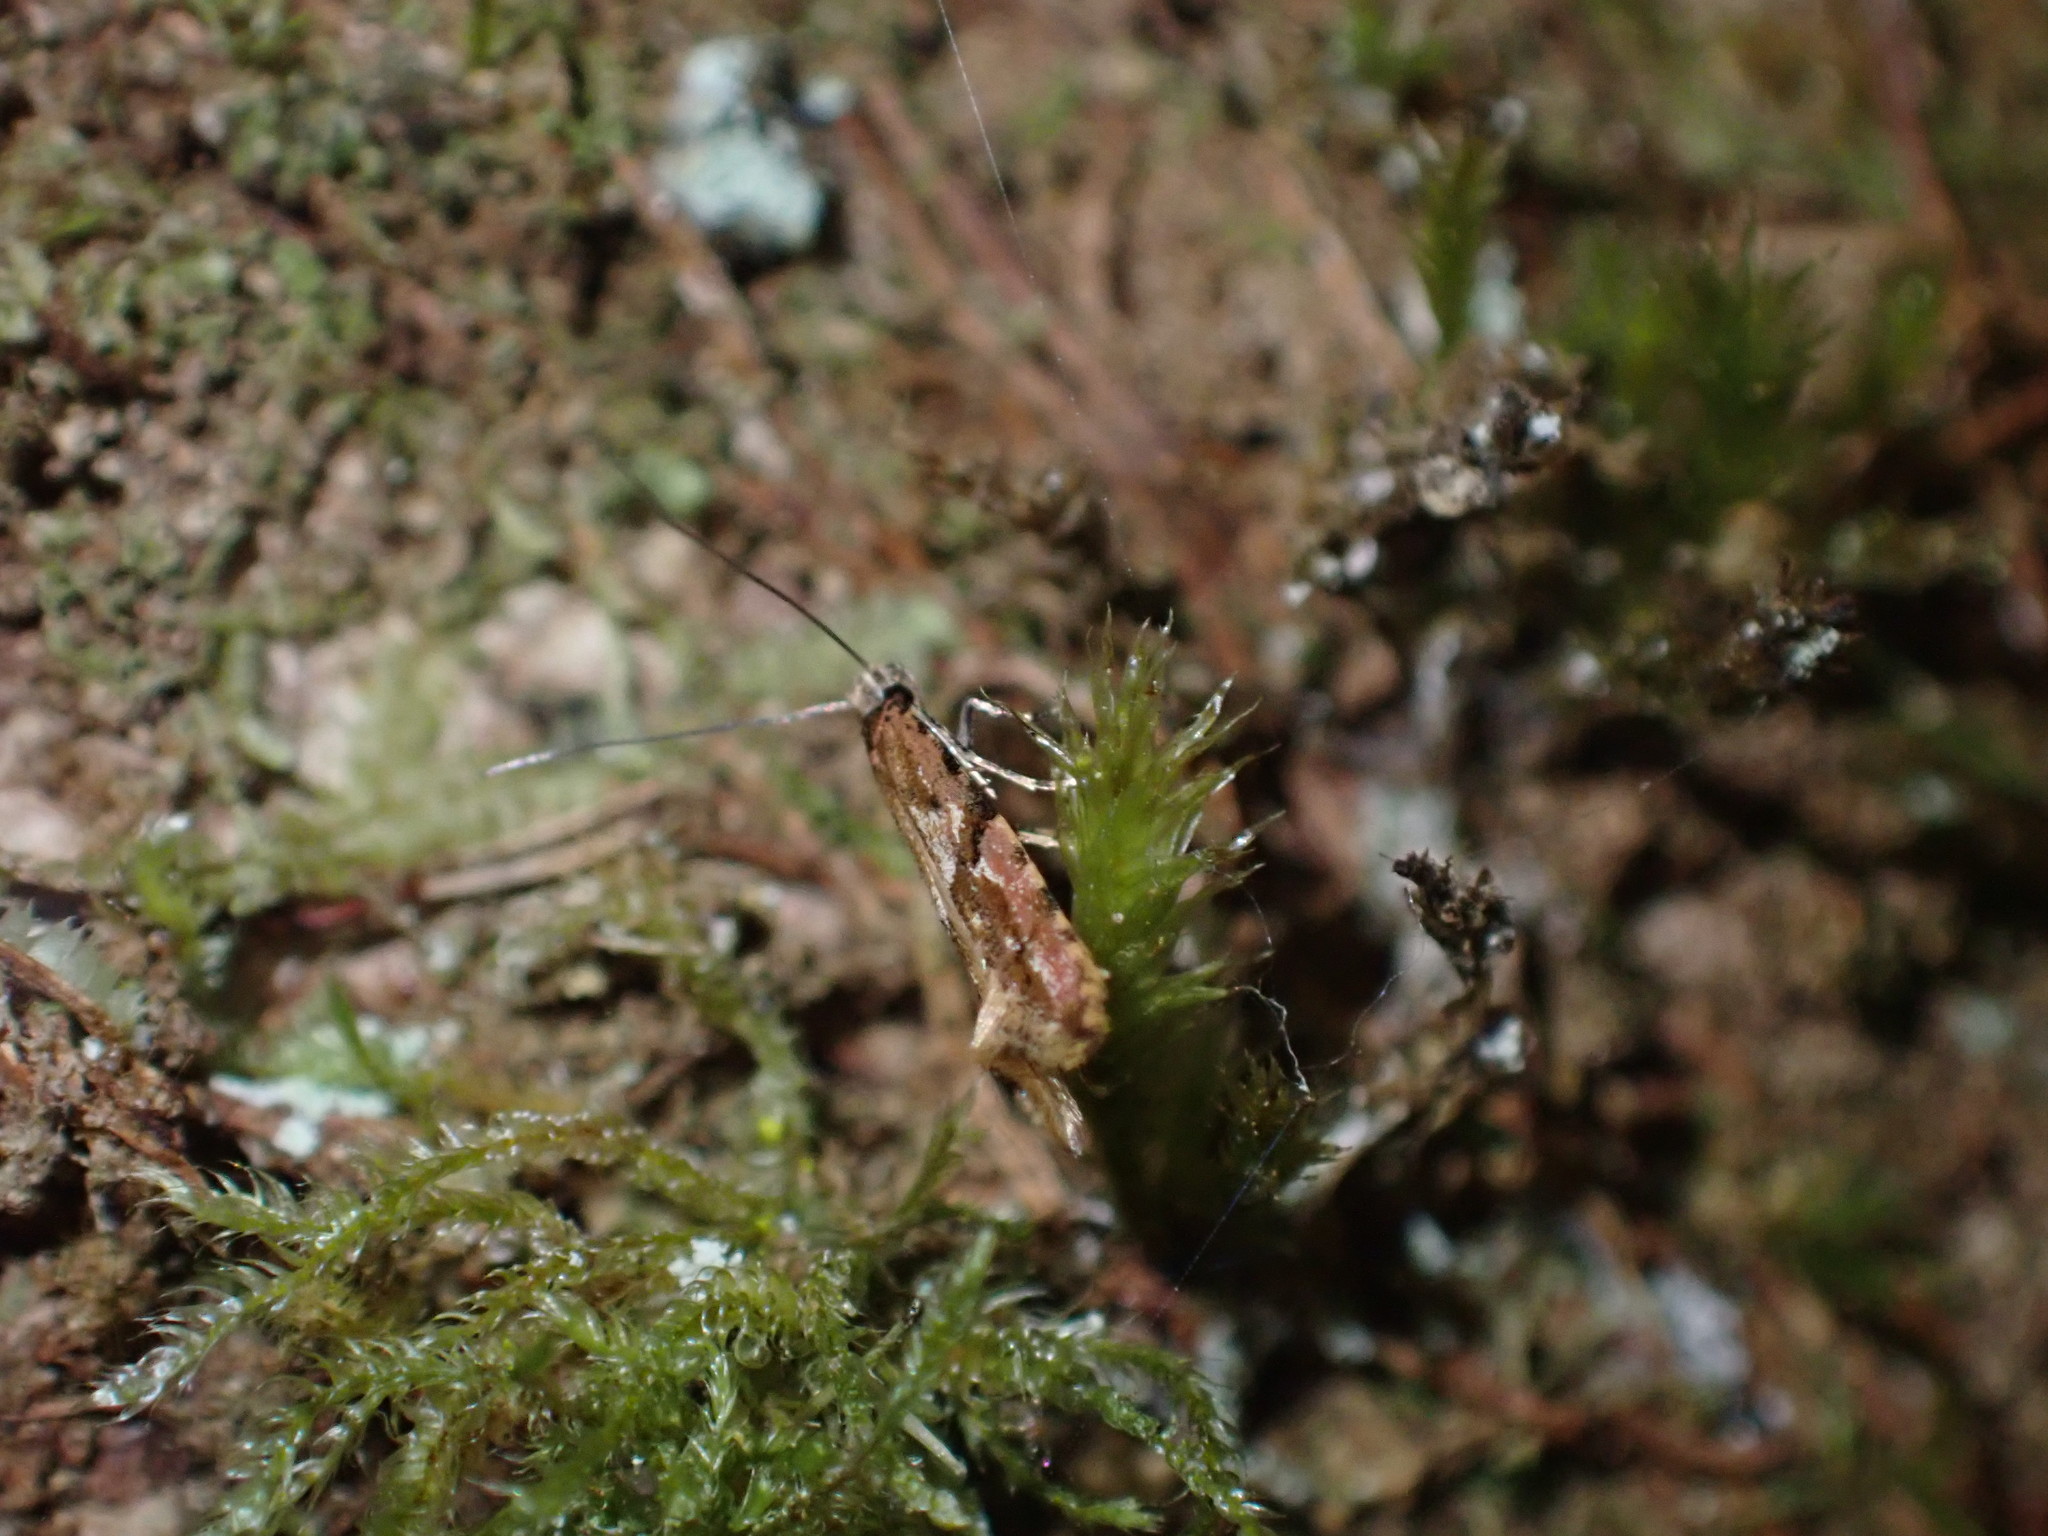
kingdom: Animalia
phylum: Arthropoda
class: Insecta
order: Lepidoptera
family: Tineidae
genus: Crypsitricha
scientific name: Crypsitricha roseata
